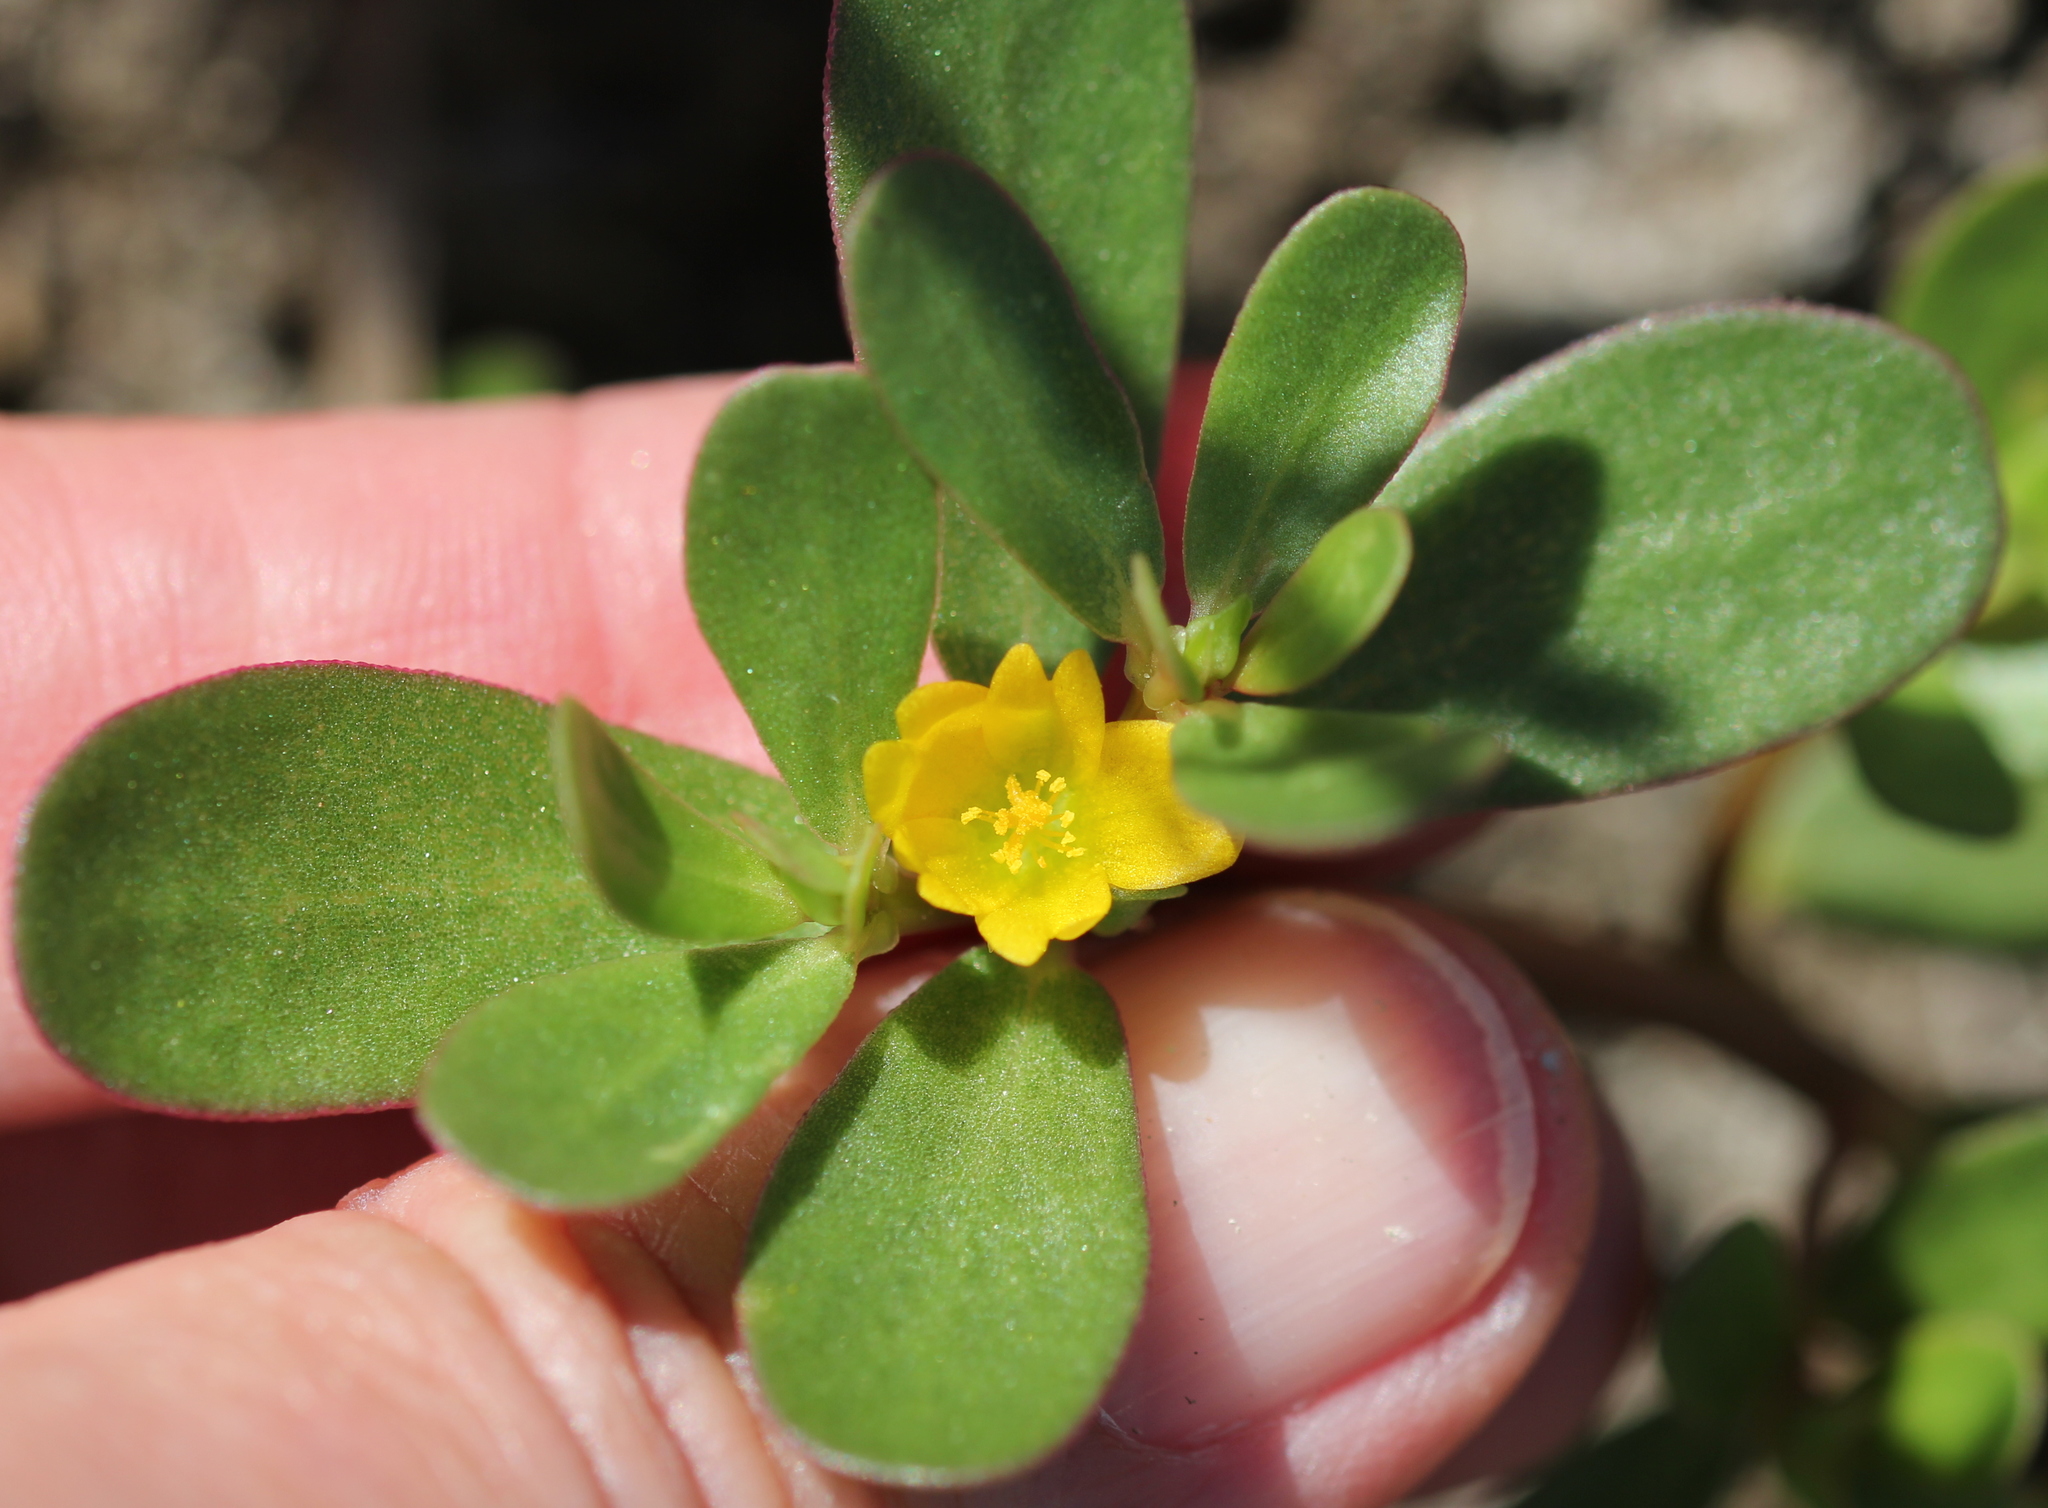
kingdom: Plantae
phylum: Tracheophyta
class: Magnoliopsida
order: Caryophyllales
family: Portulacaceae
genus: Portulaca
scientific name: Portulaca oleracea
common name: Common purslane
